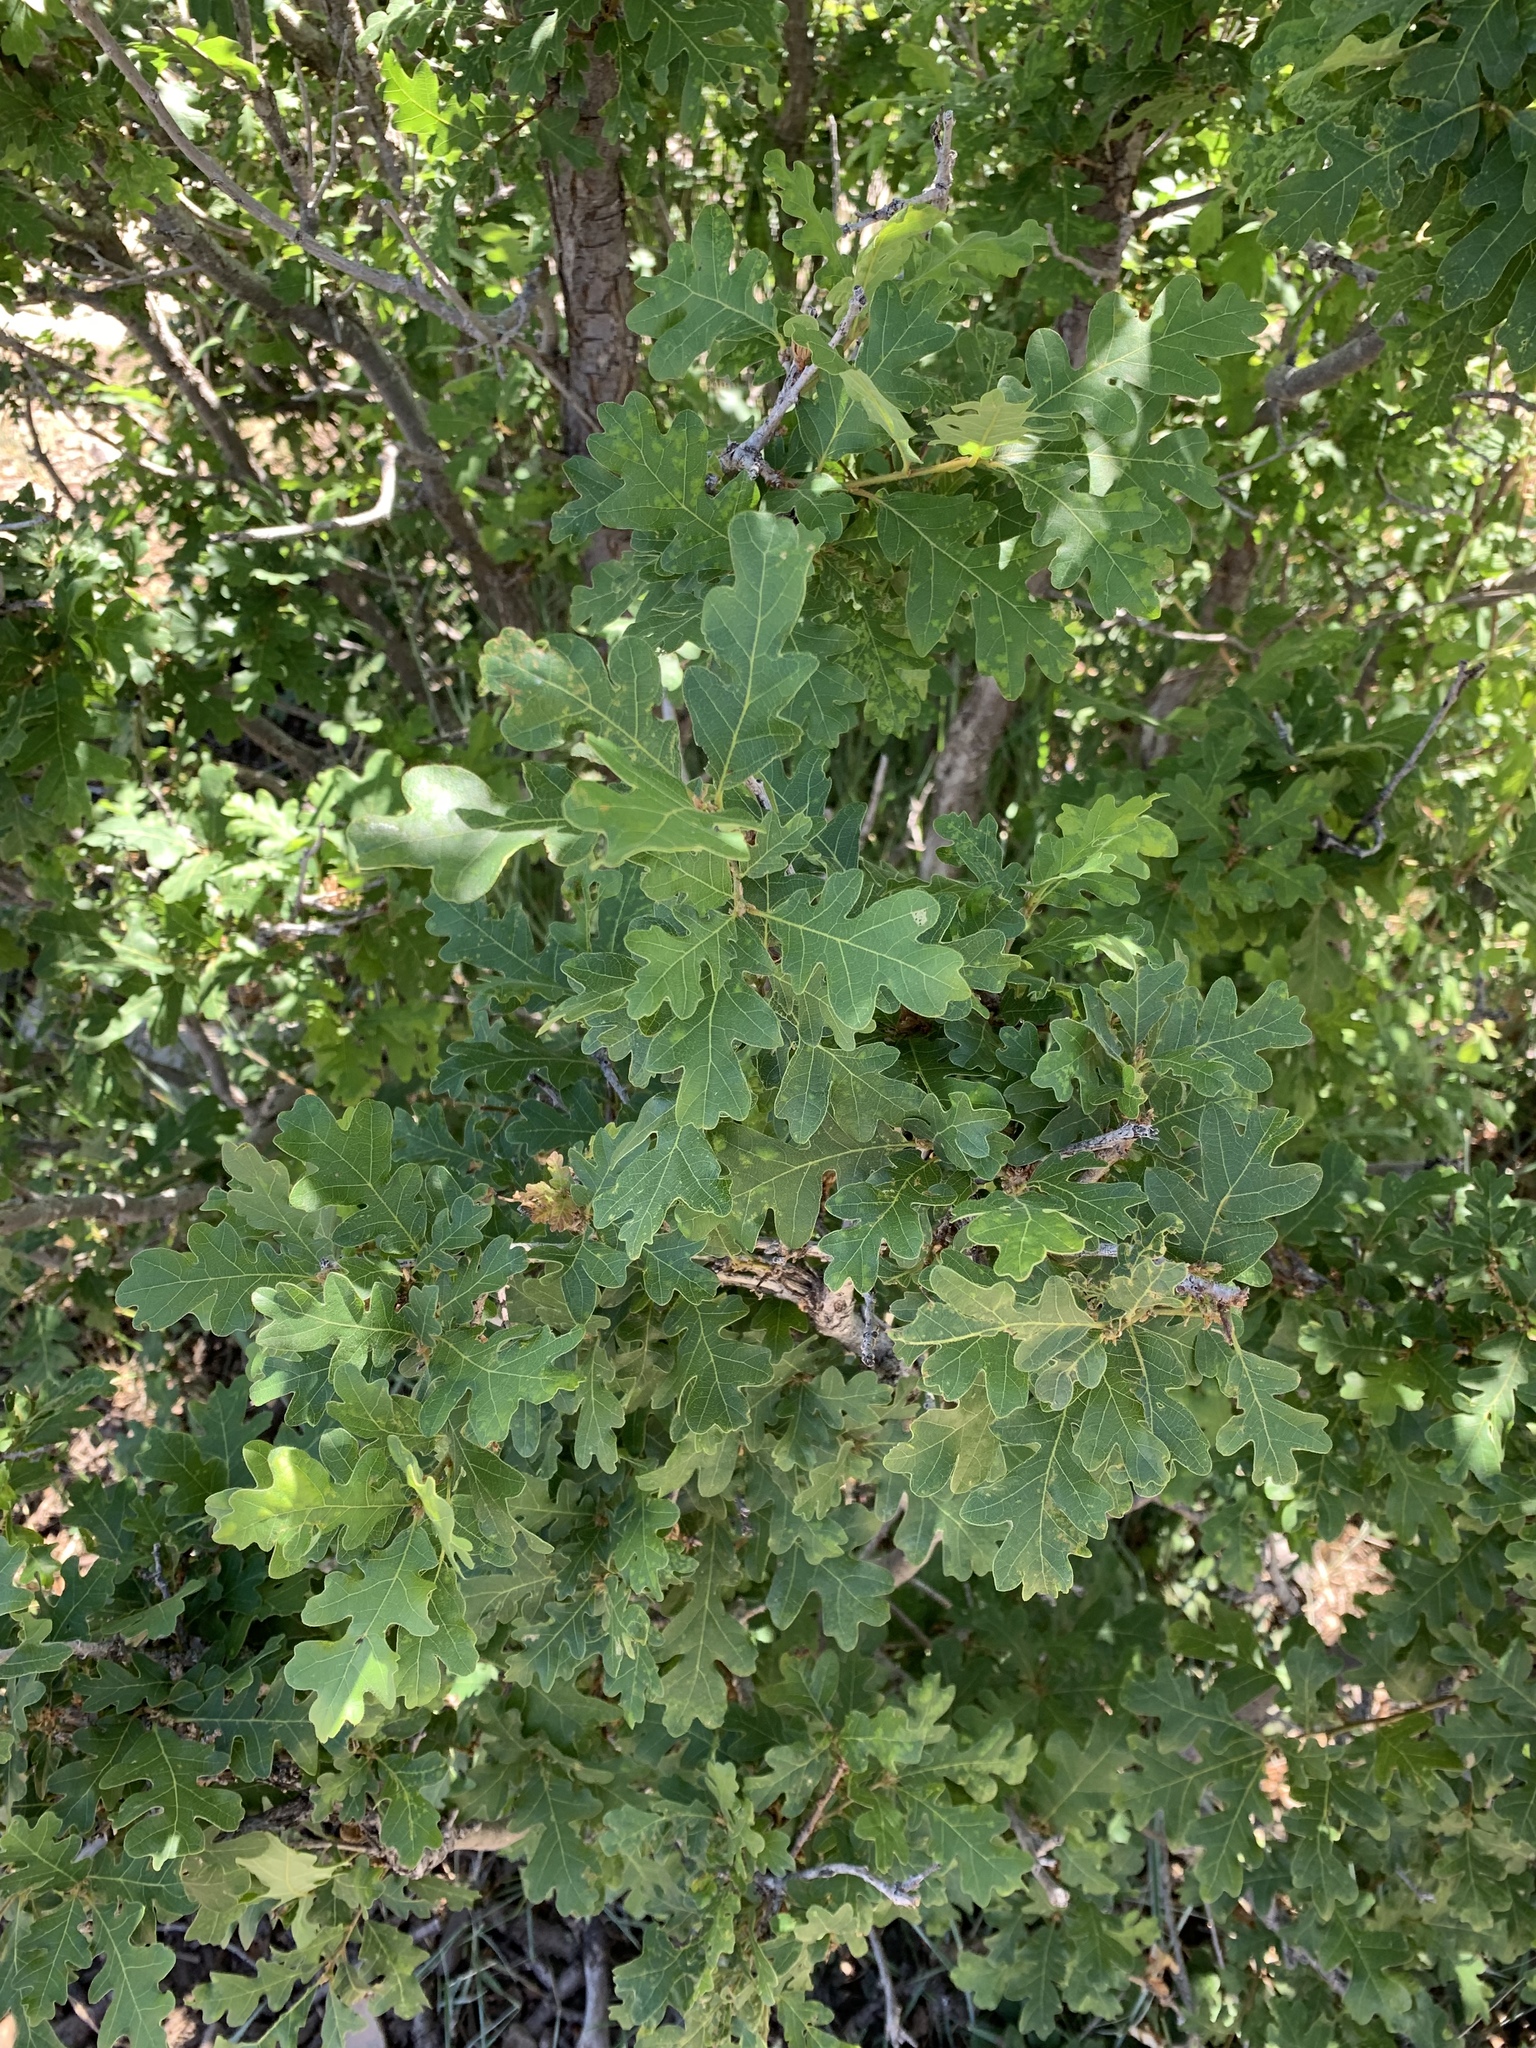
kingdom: Plantae
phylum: Tracheophyta
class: Magnoliopsida
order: Fagales
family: Fagaceae
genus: Quercus
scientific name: Quercus gambelii
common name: Gambel oak
